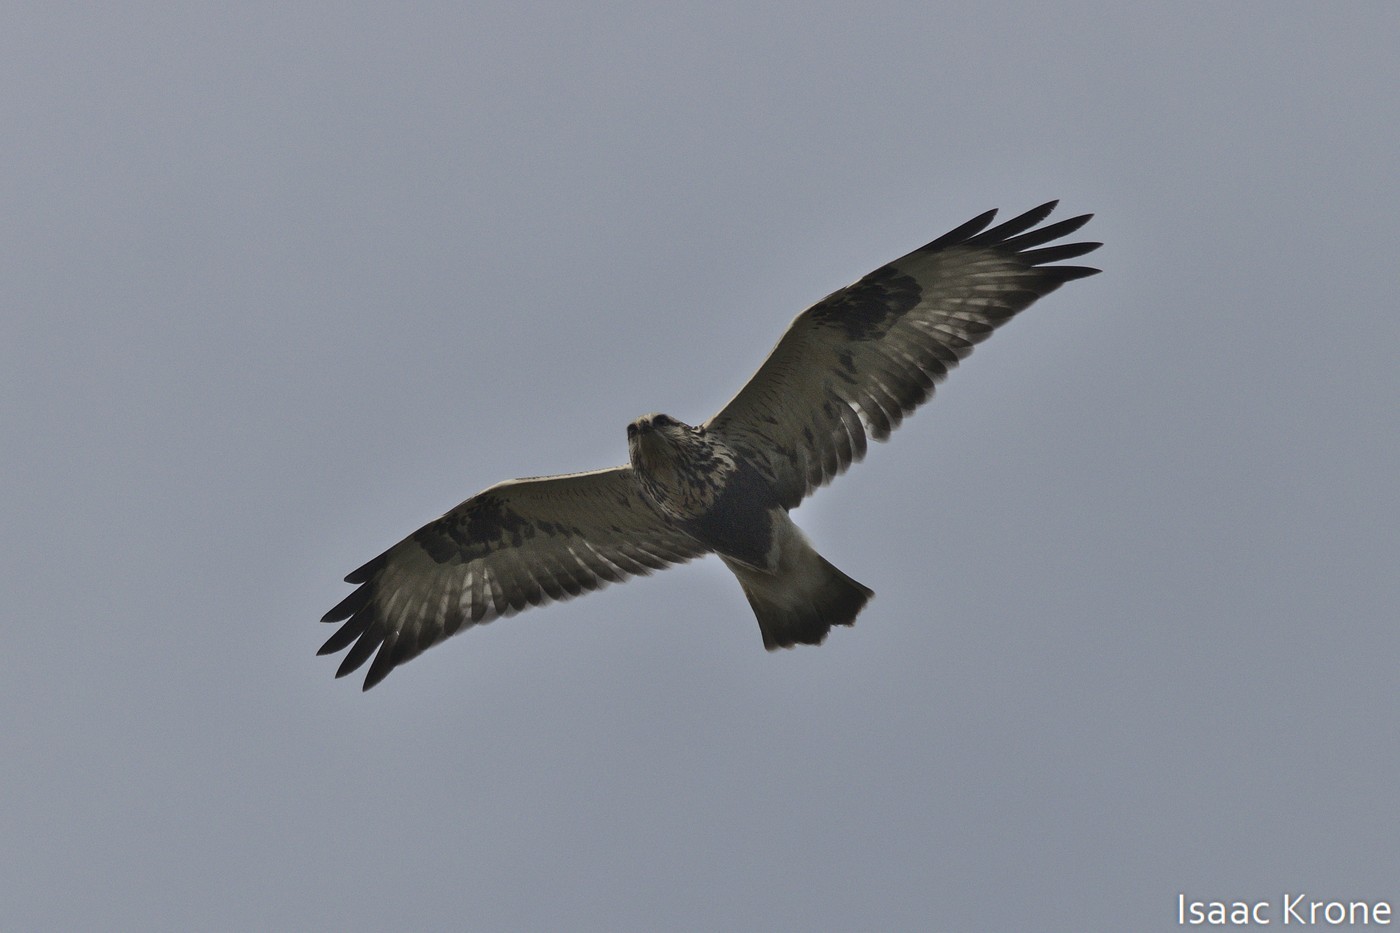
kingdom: Animalia
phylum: Chordata
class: Aves
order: Accipitriformes
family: Accipitridae
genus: Buteo
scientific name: Buteo lagopus
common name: Rough-legged buzzard
